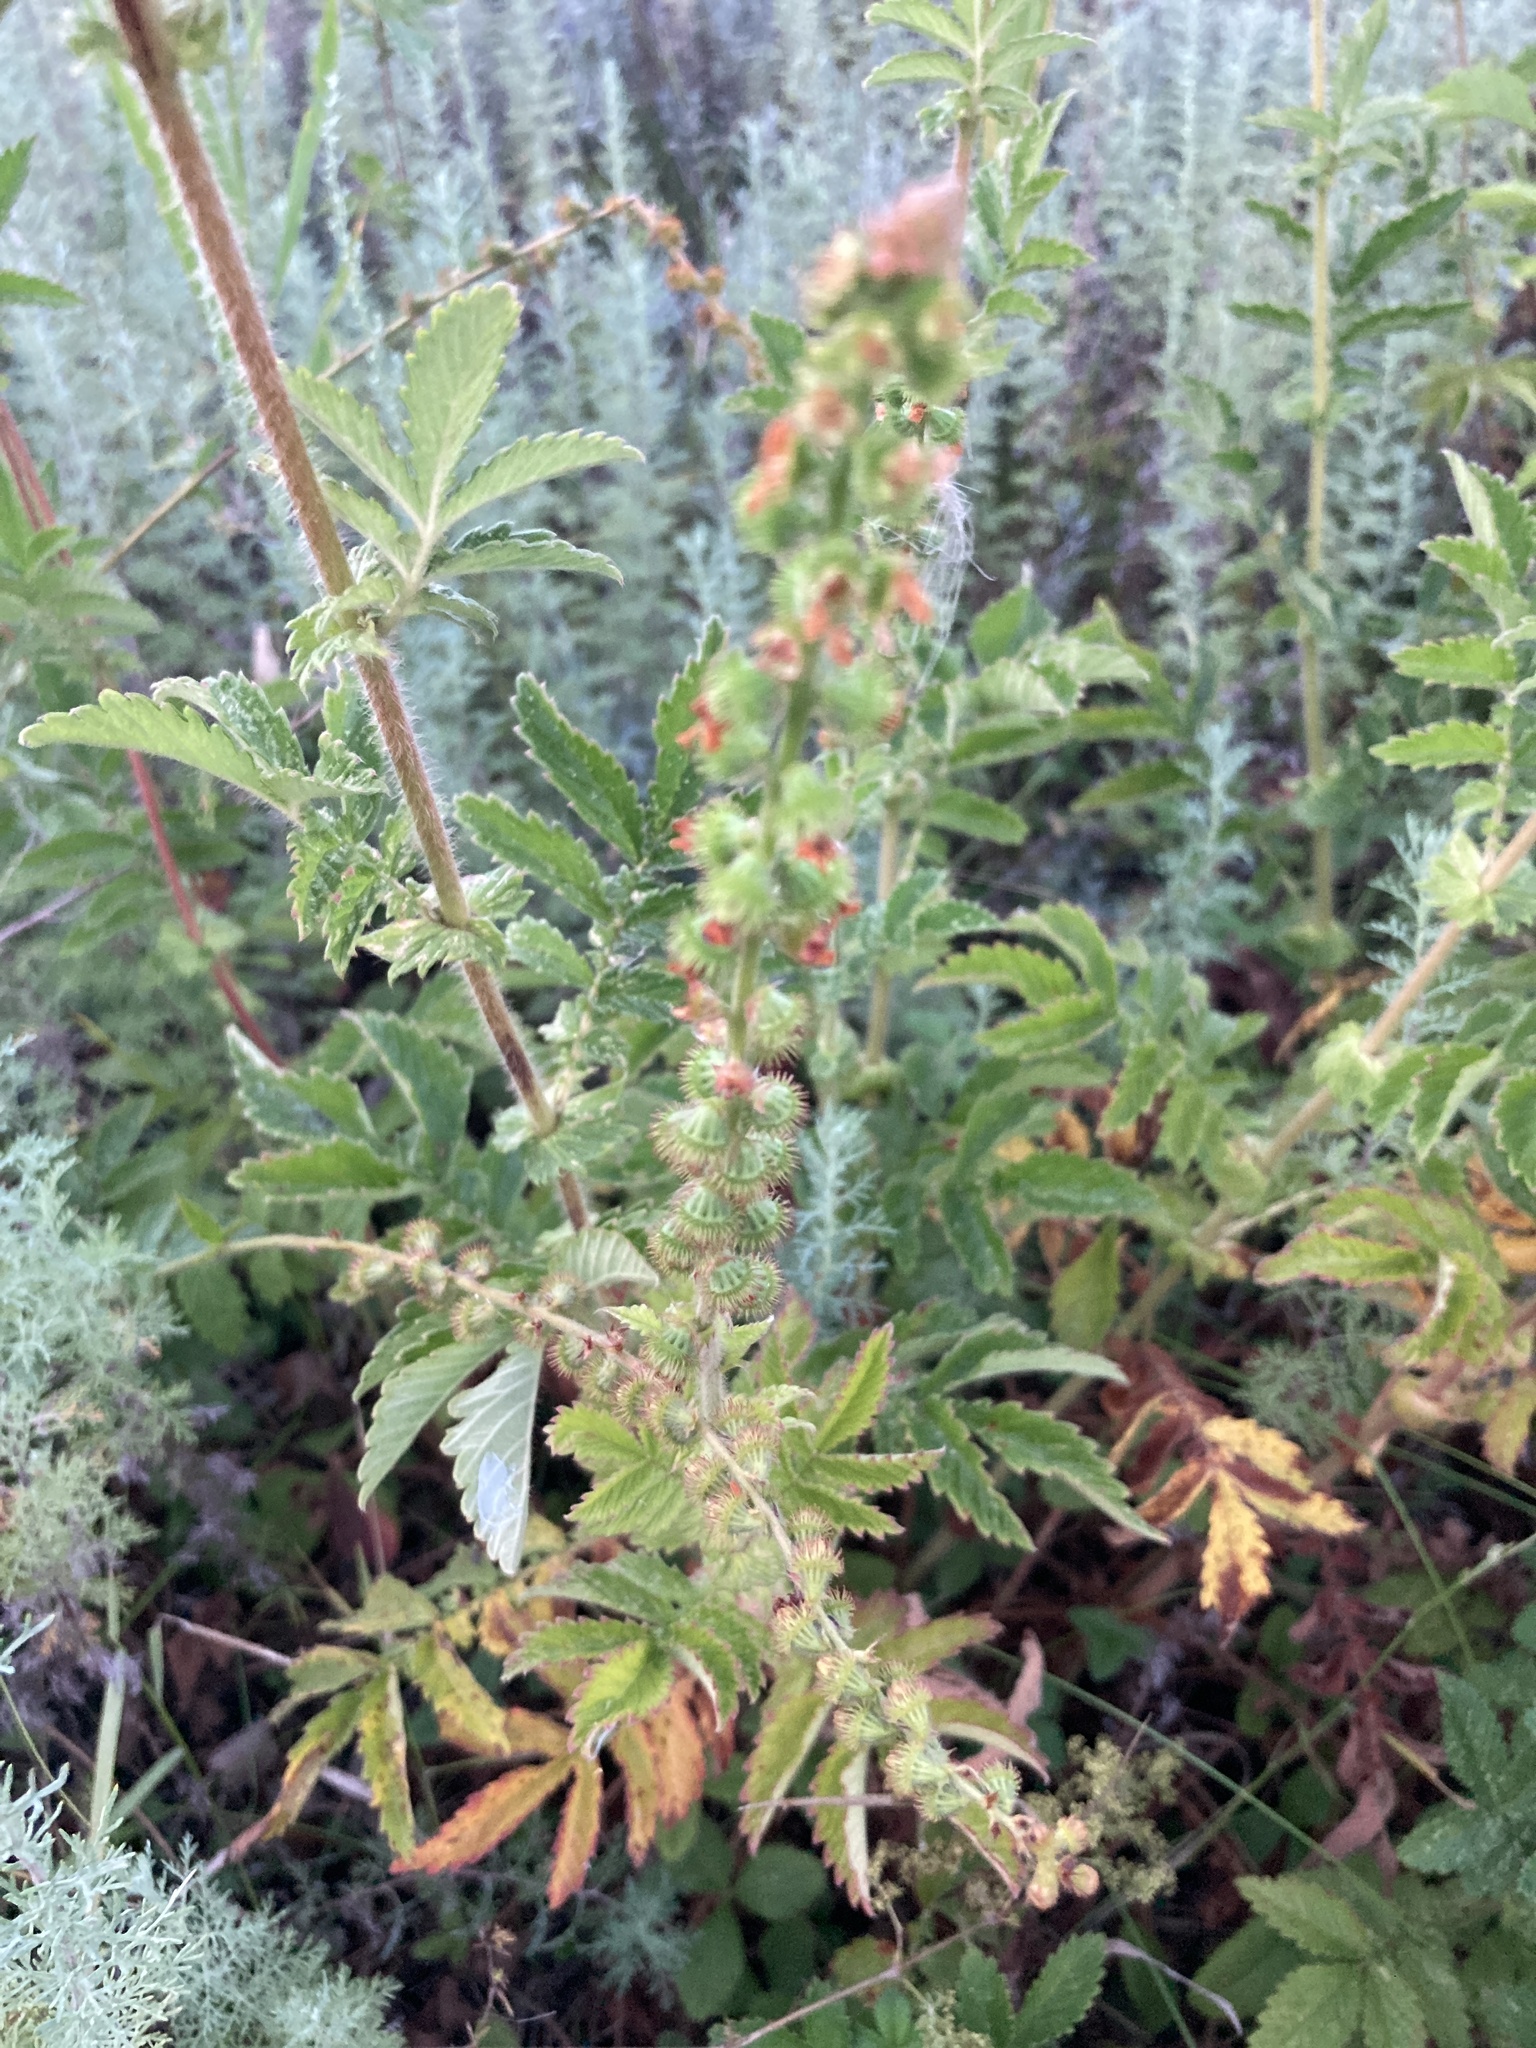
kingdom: Plantae
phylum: Tracheophyta
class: Magnoliopsida
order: Rosales
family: Rosaceae
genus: Agrimonia
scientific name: Agrimonia eupatoria
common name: Agrimony
